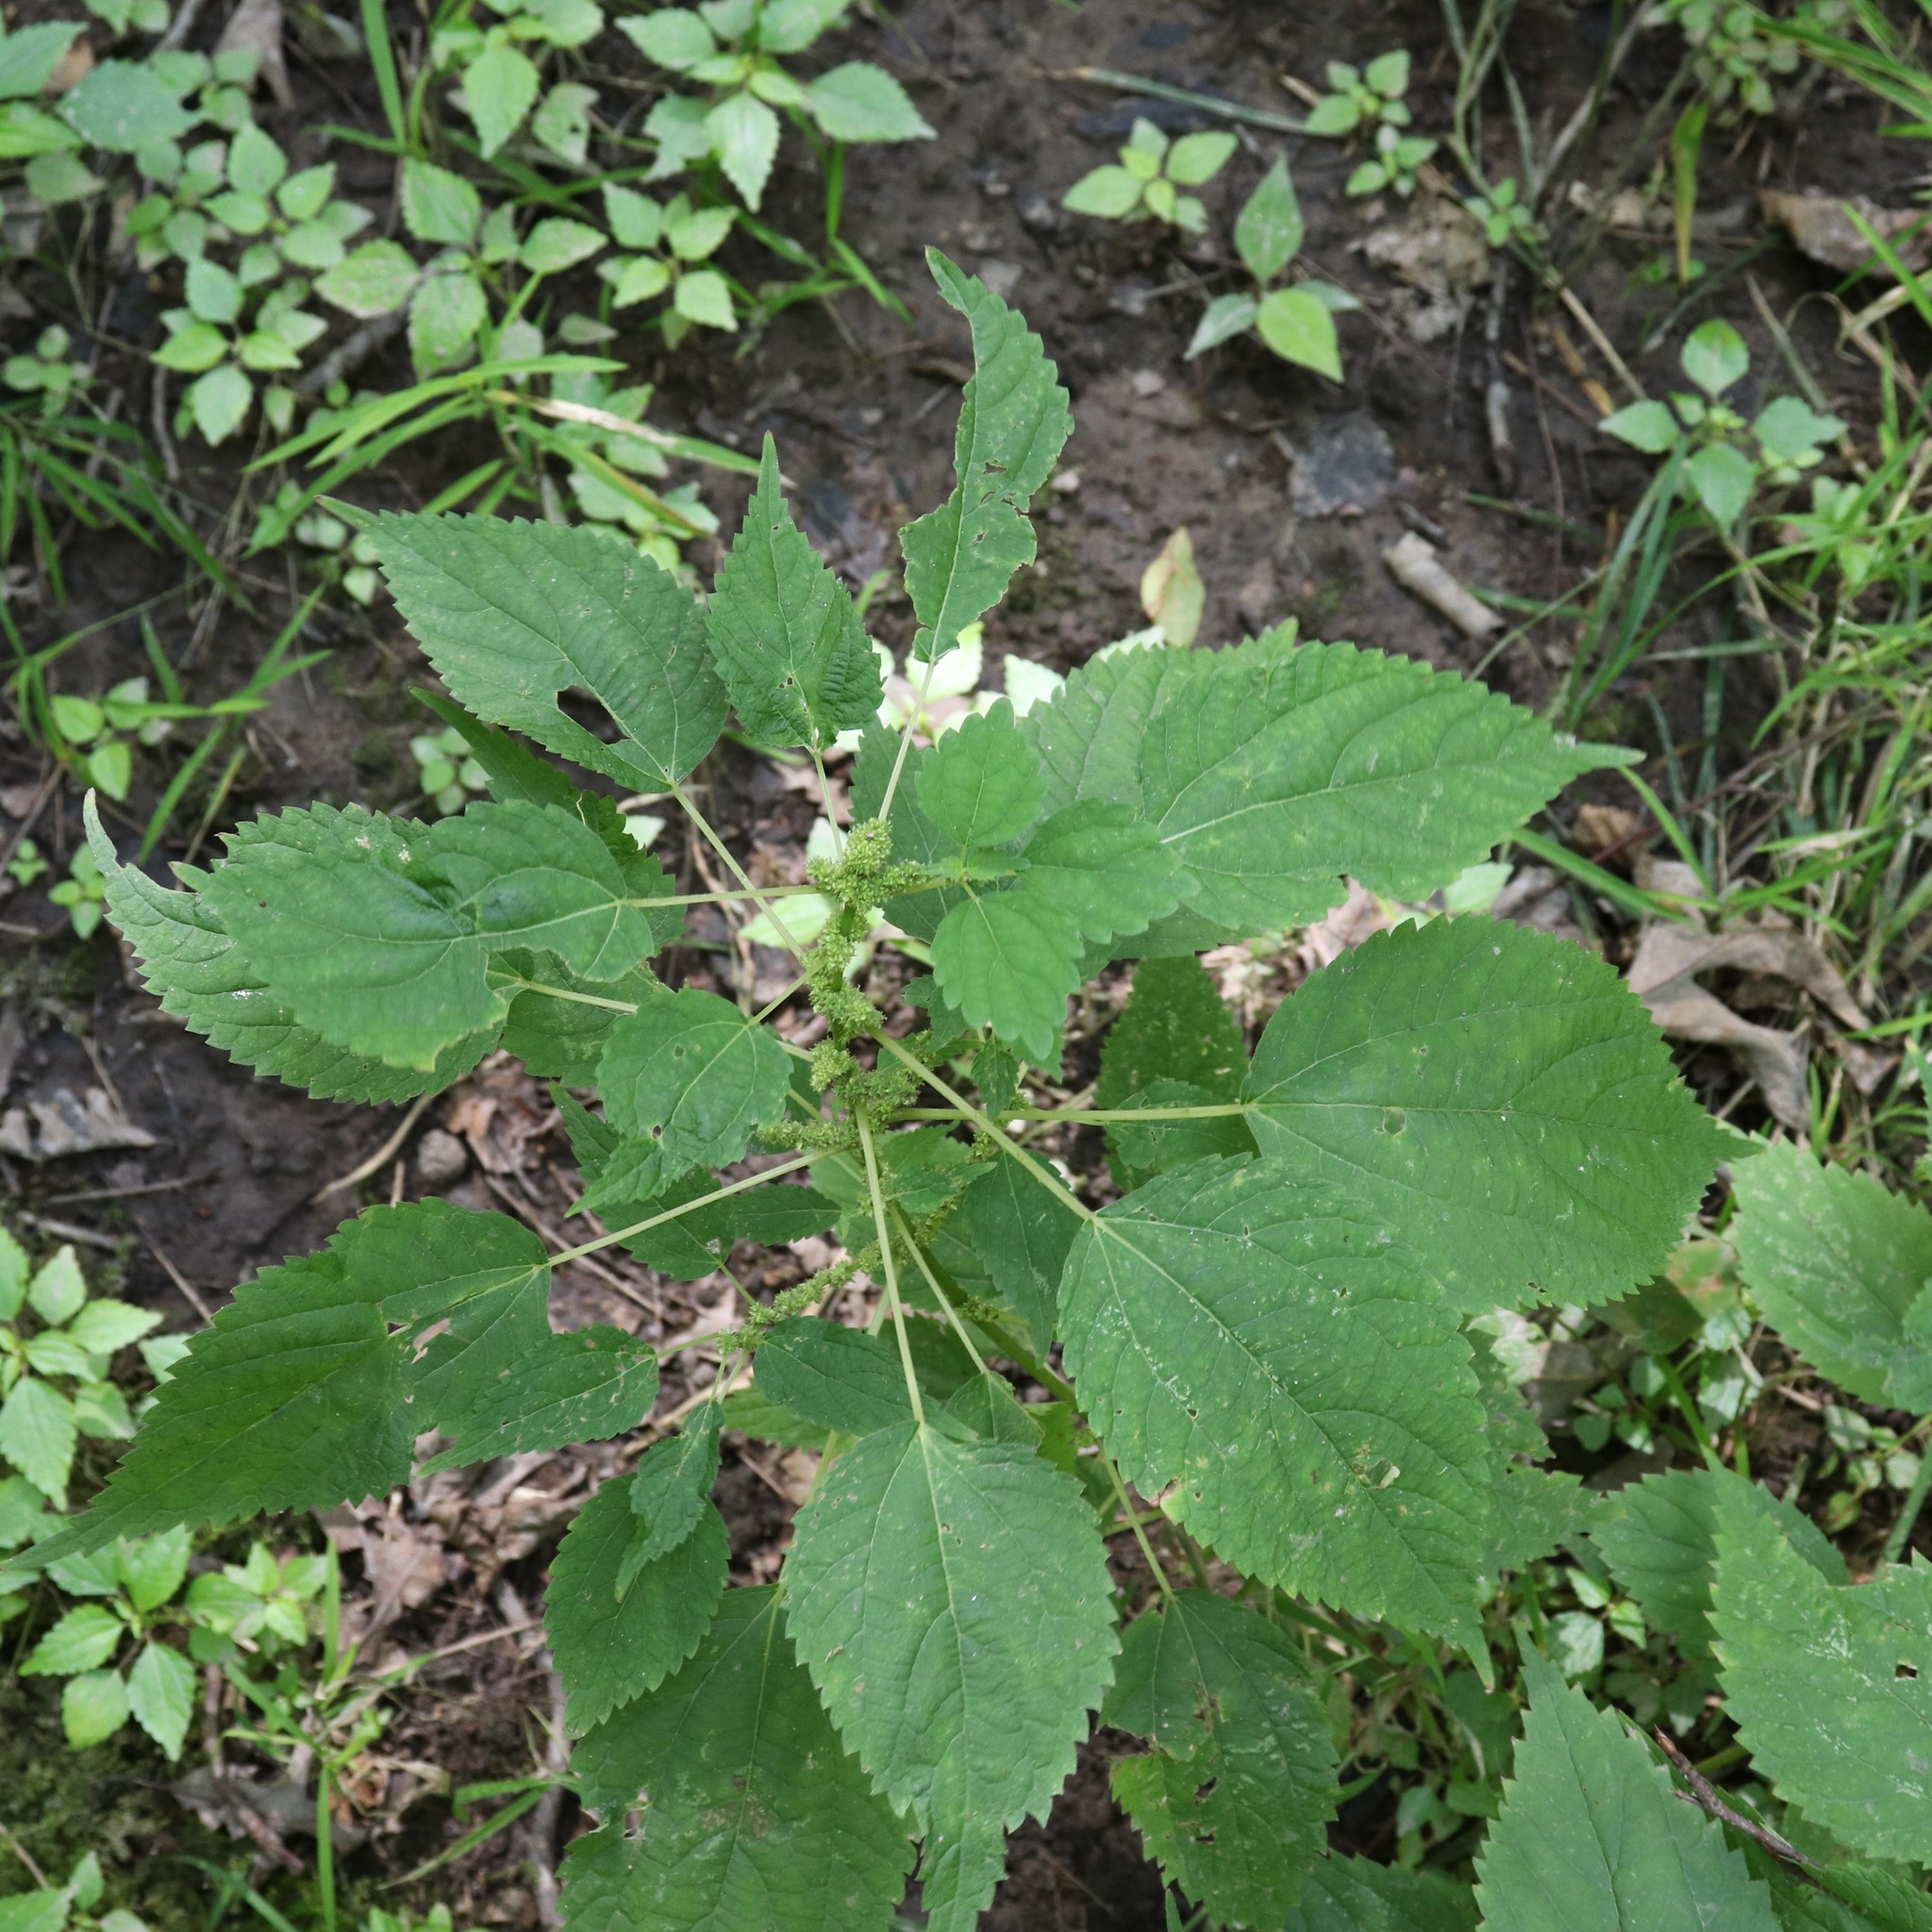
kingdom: Plantae
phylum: Tracheophyta
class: Magnoliopsida
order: Rosales
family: Urticaceae
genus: Boehmeria
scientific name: Boehmeria cylindrica
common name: Bog-hemp
